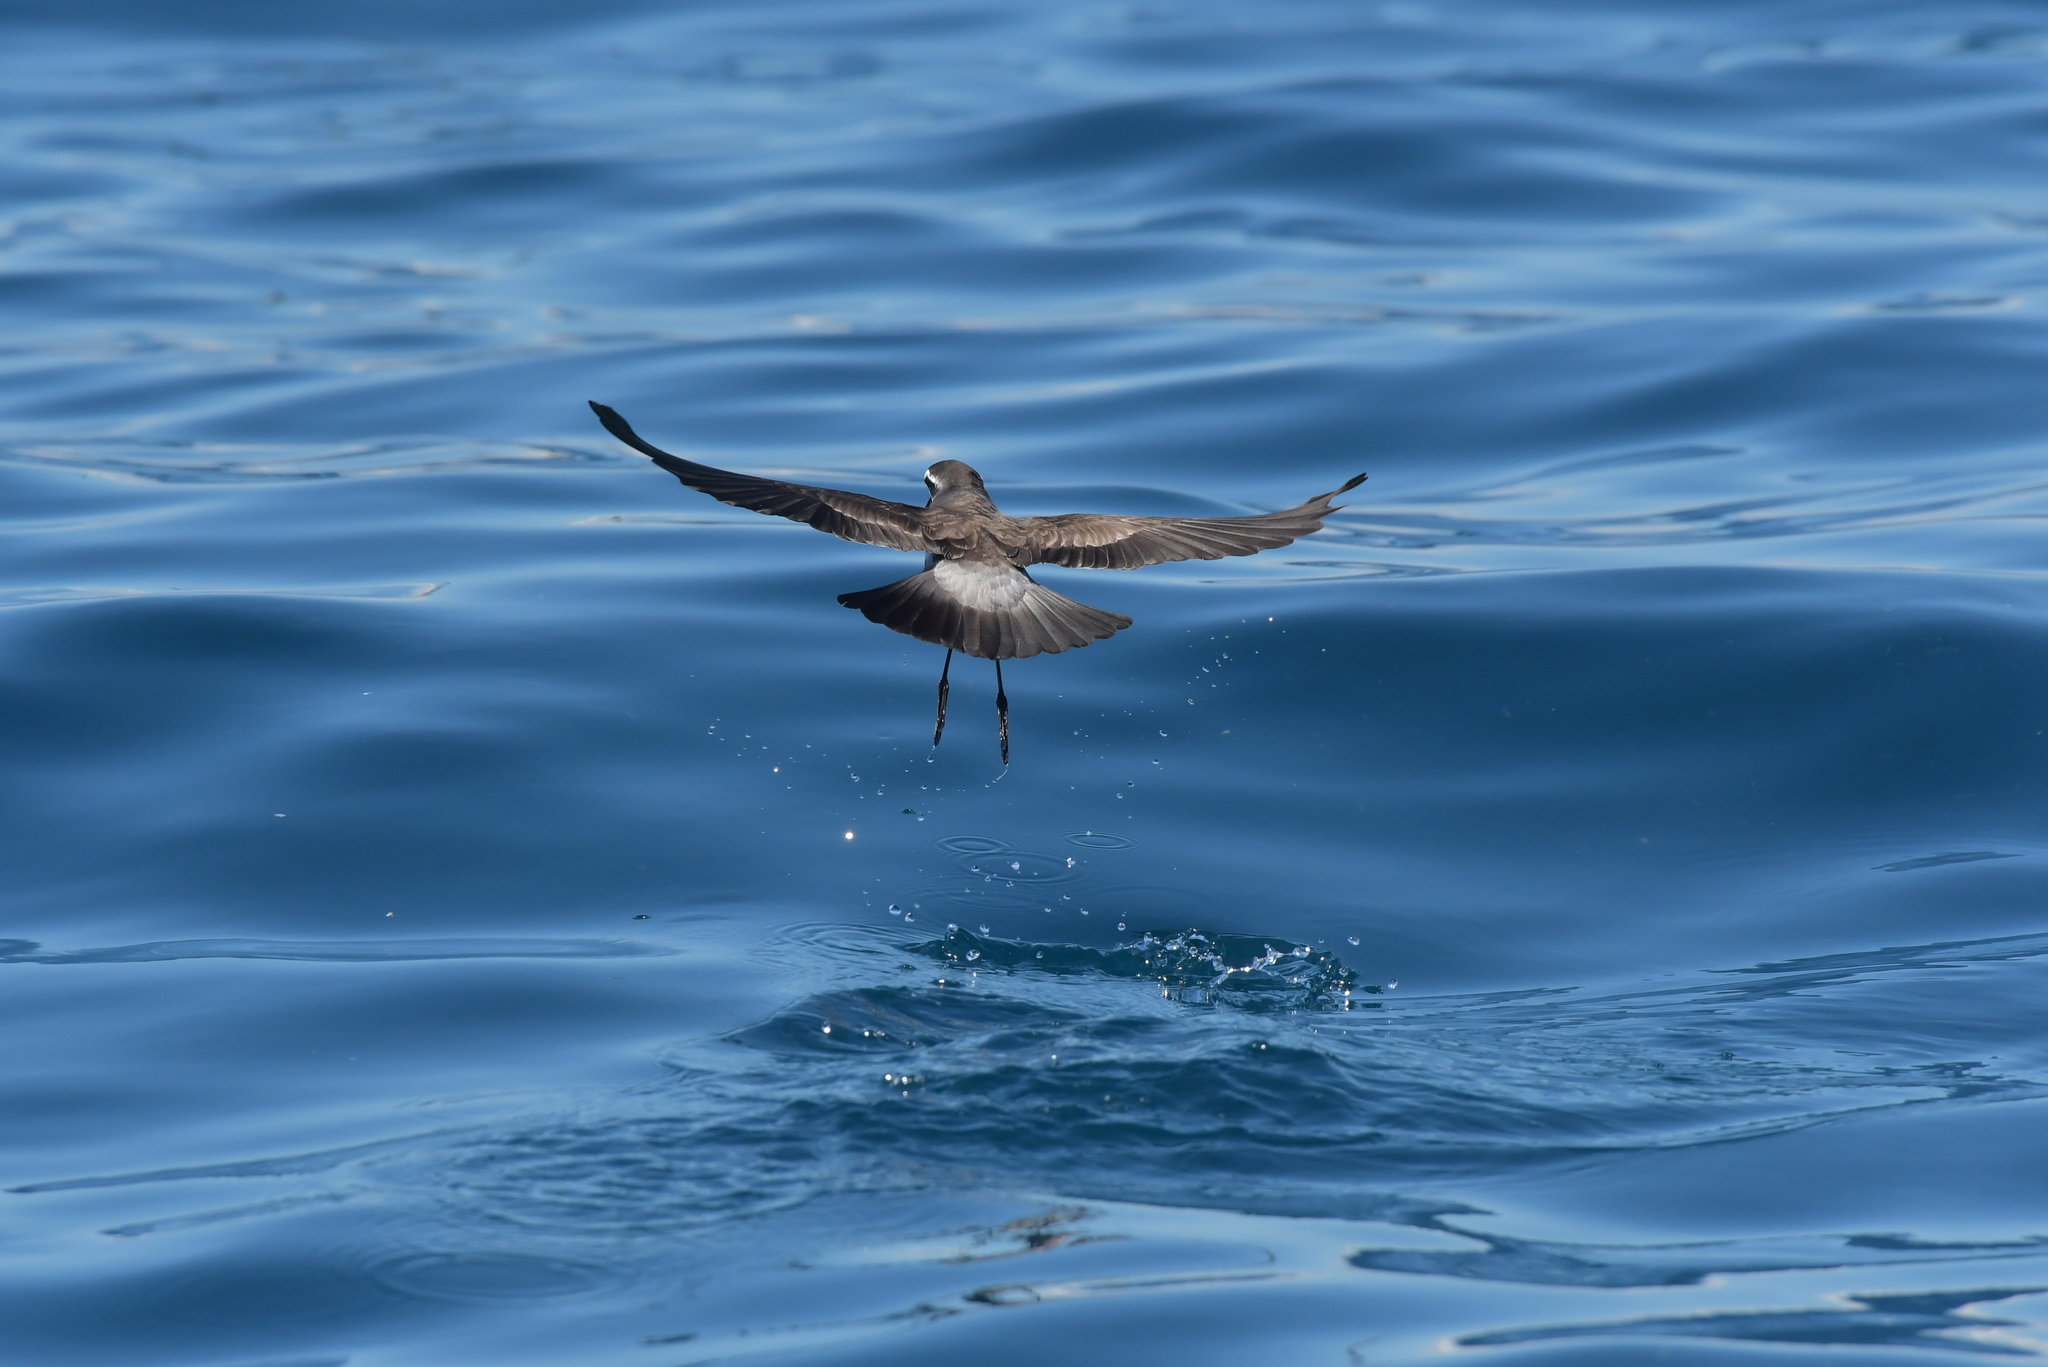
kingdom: Animalia
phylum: Chordata
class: Aves
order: Procellariiformes
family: Hydrobatidae
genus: Pelagodroma
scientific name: Pelagodroma marina
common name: White-faced storm-petrel
